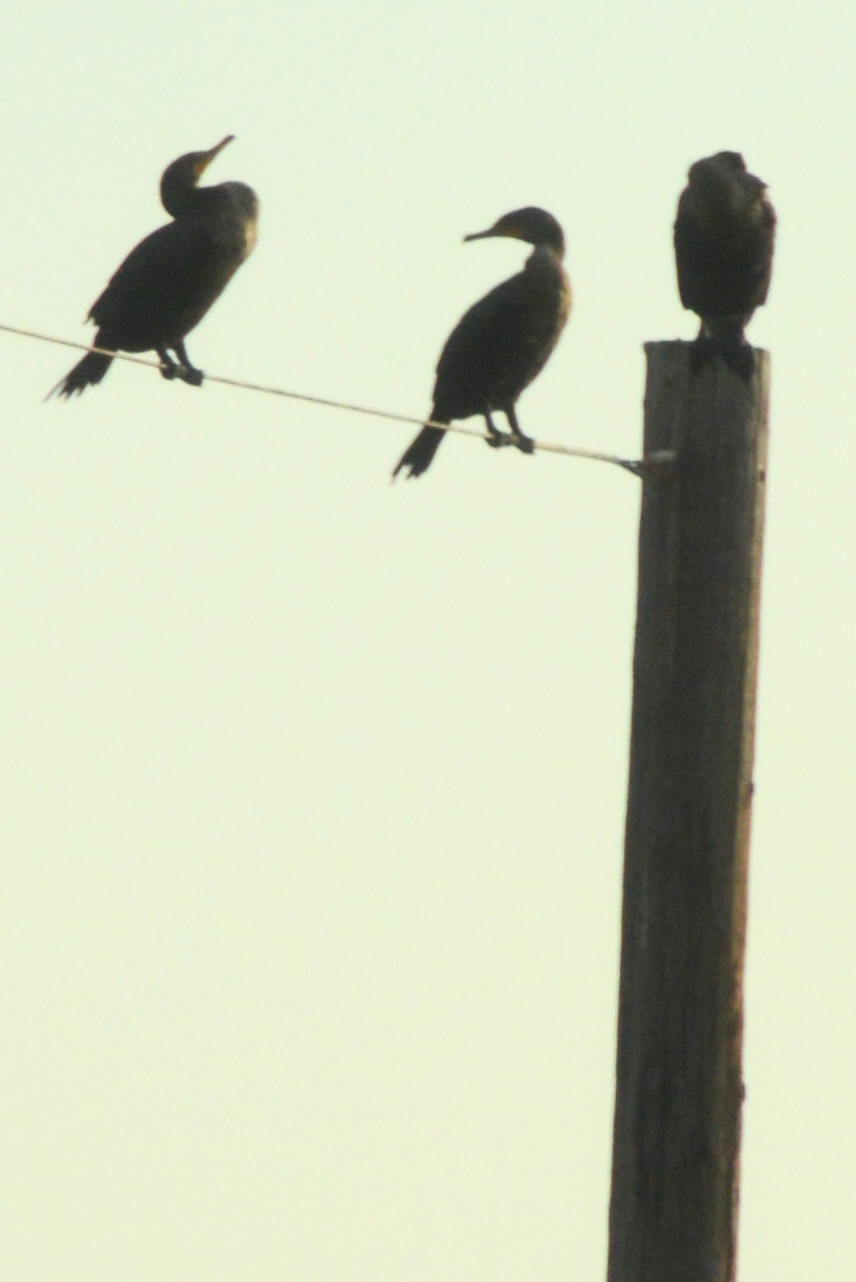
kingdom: Animalia
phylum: Chordata
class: Aves
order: Suliformes
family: Phalacrocoracidae
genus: Phalacrocorax
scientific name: Phalacrocorax auritus
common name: Double-crested cormorant
